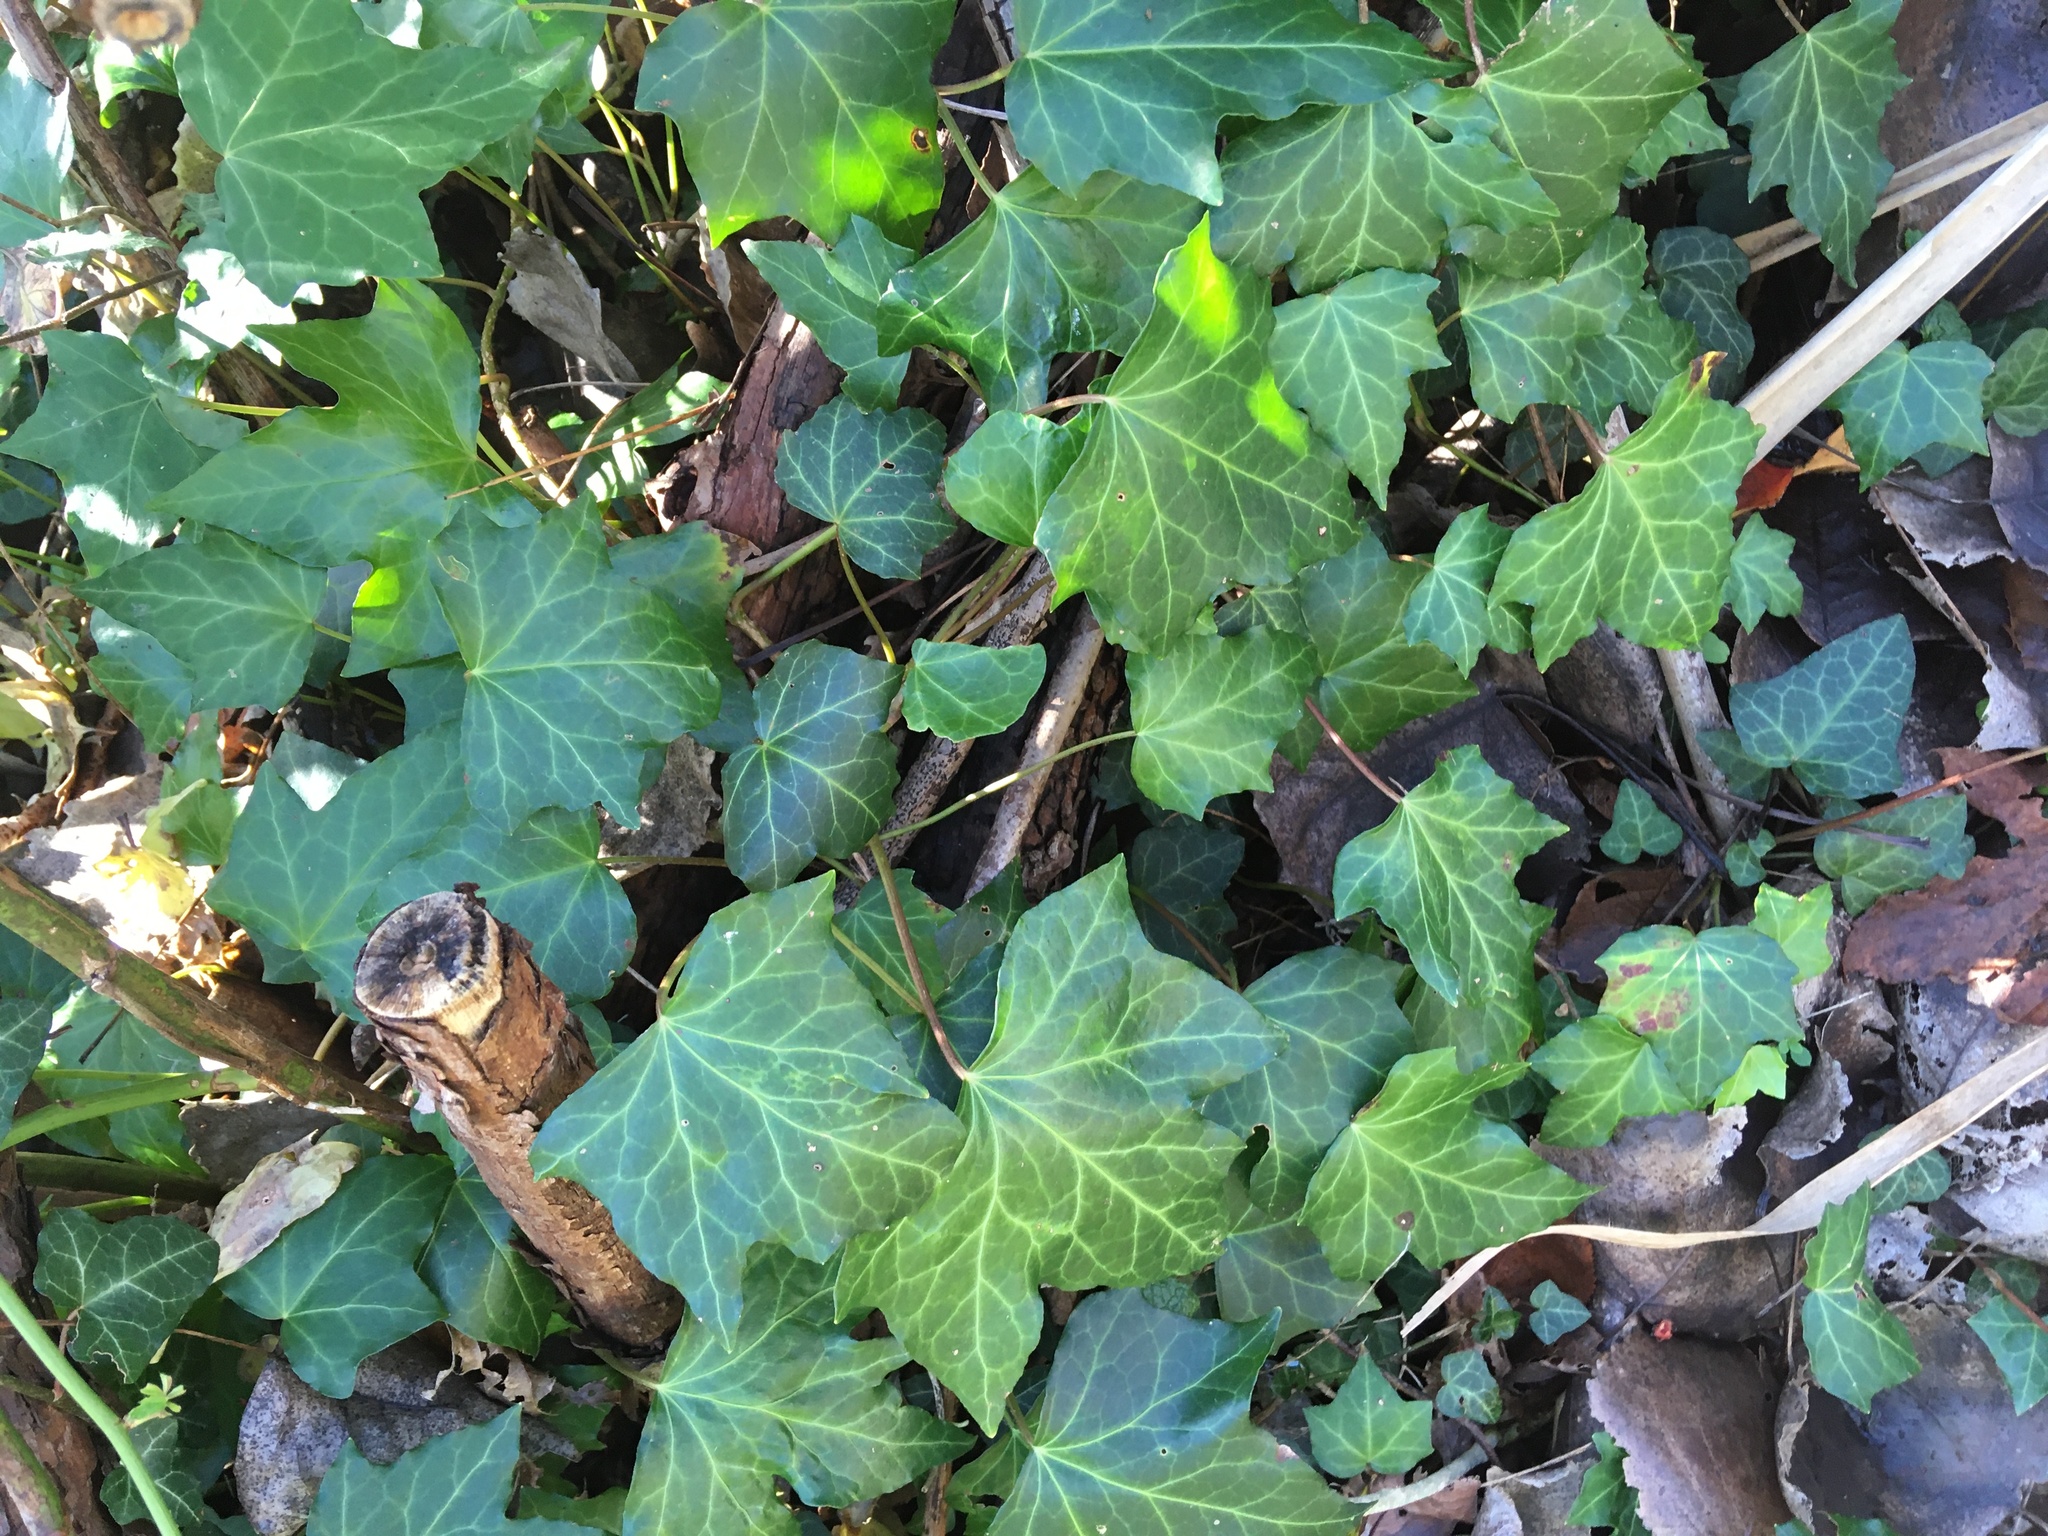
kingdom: Plantae
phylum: Tracheophyta
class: Magnoliopsida
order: Apiales
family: Araliaceae
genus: Hedera
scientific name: Hedera helix
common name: Ivy
